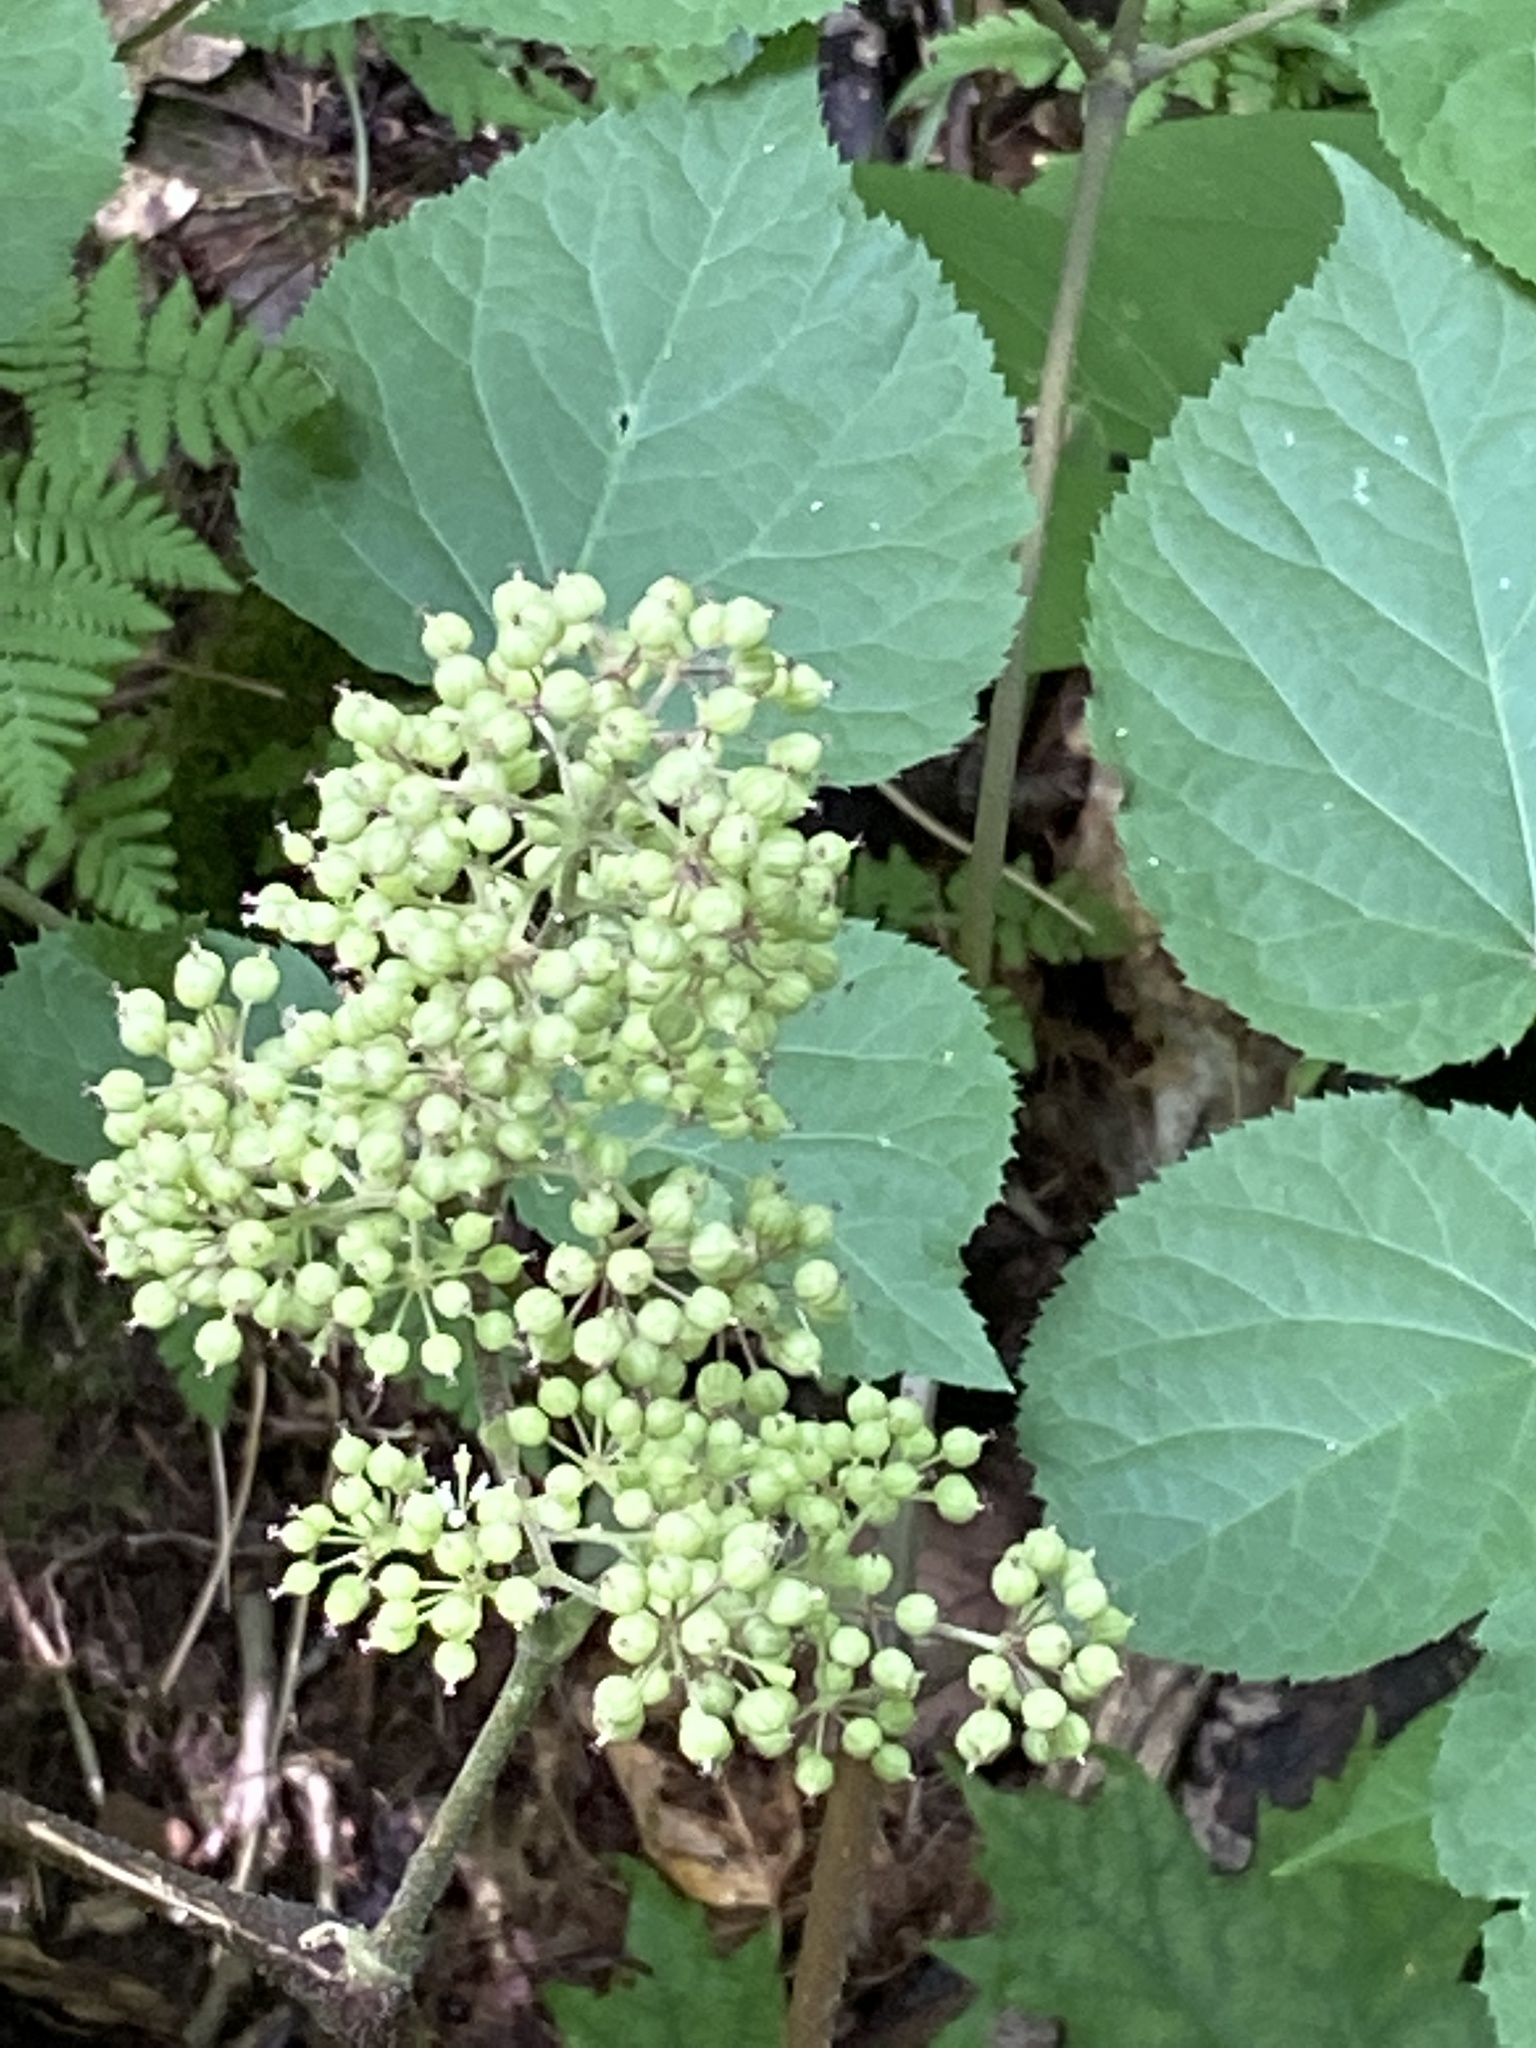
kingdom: Plantae
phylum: Tracheophyta
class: Magnoliopsida
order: Apiales
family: Araliaceae
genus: Aralia
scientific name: Aralia racemosa
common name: American-spikenard
